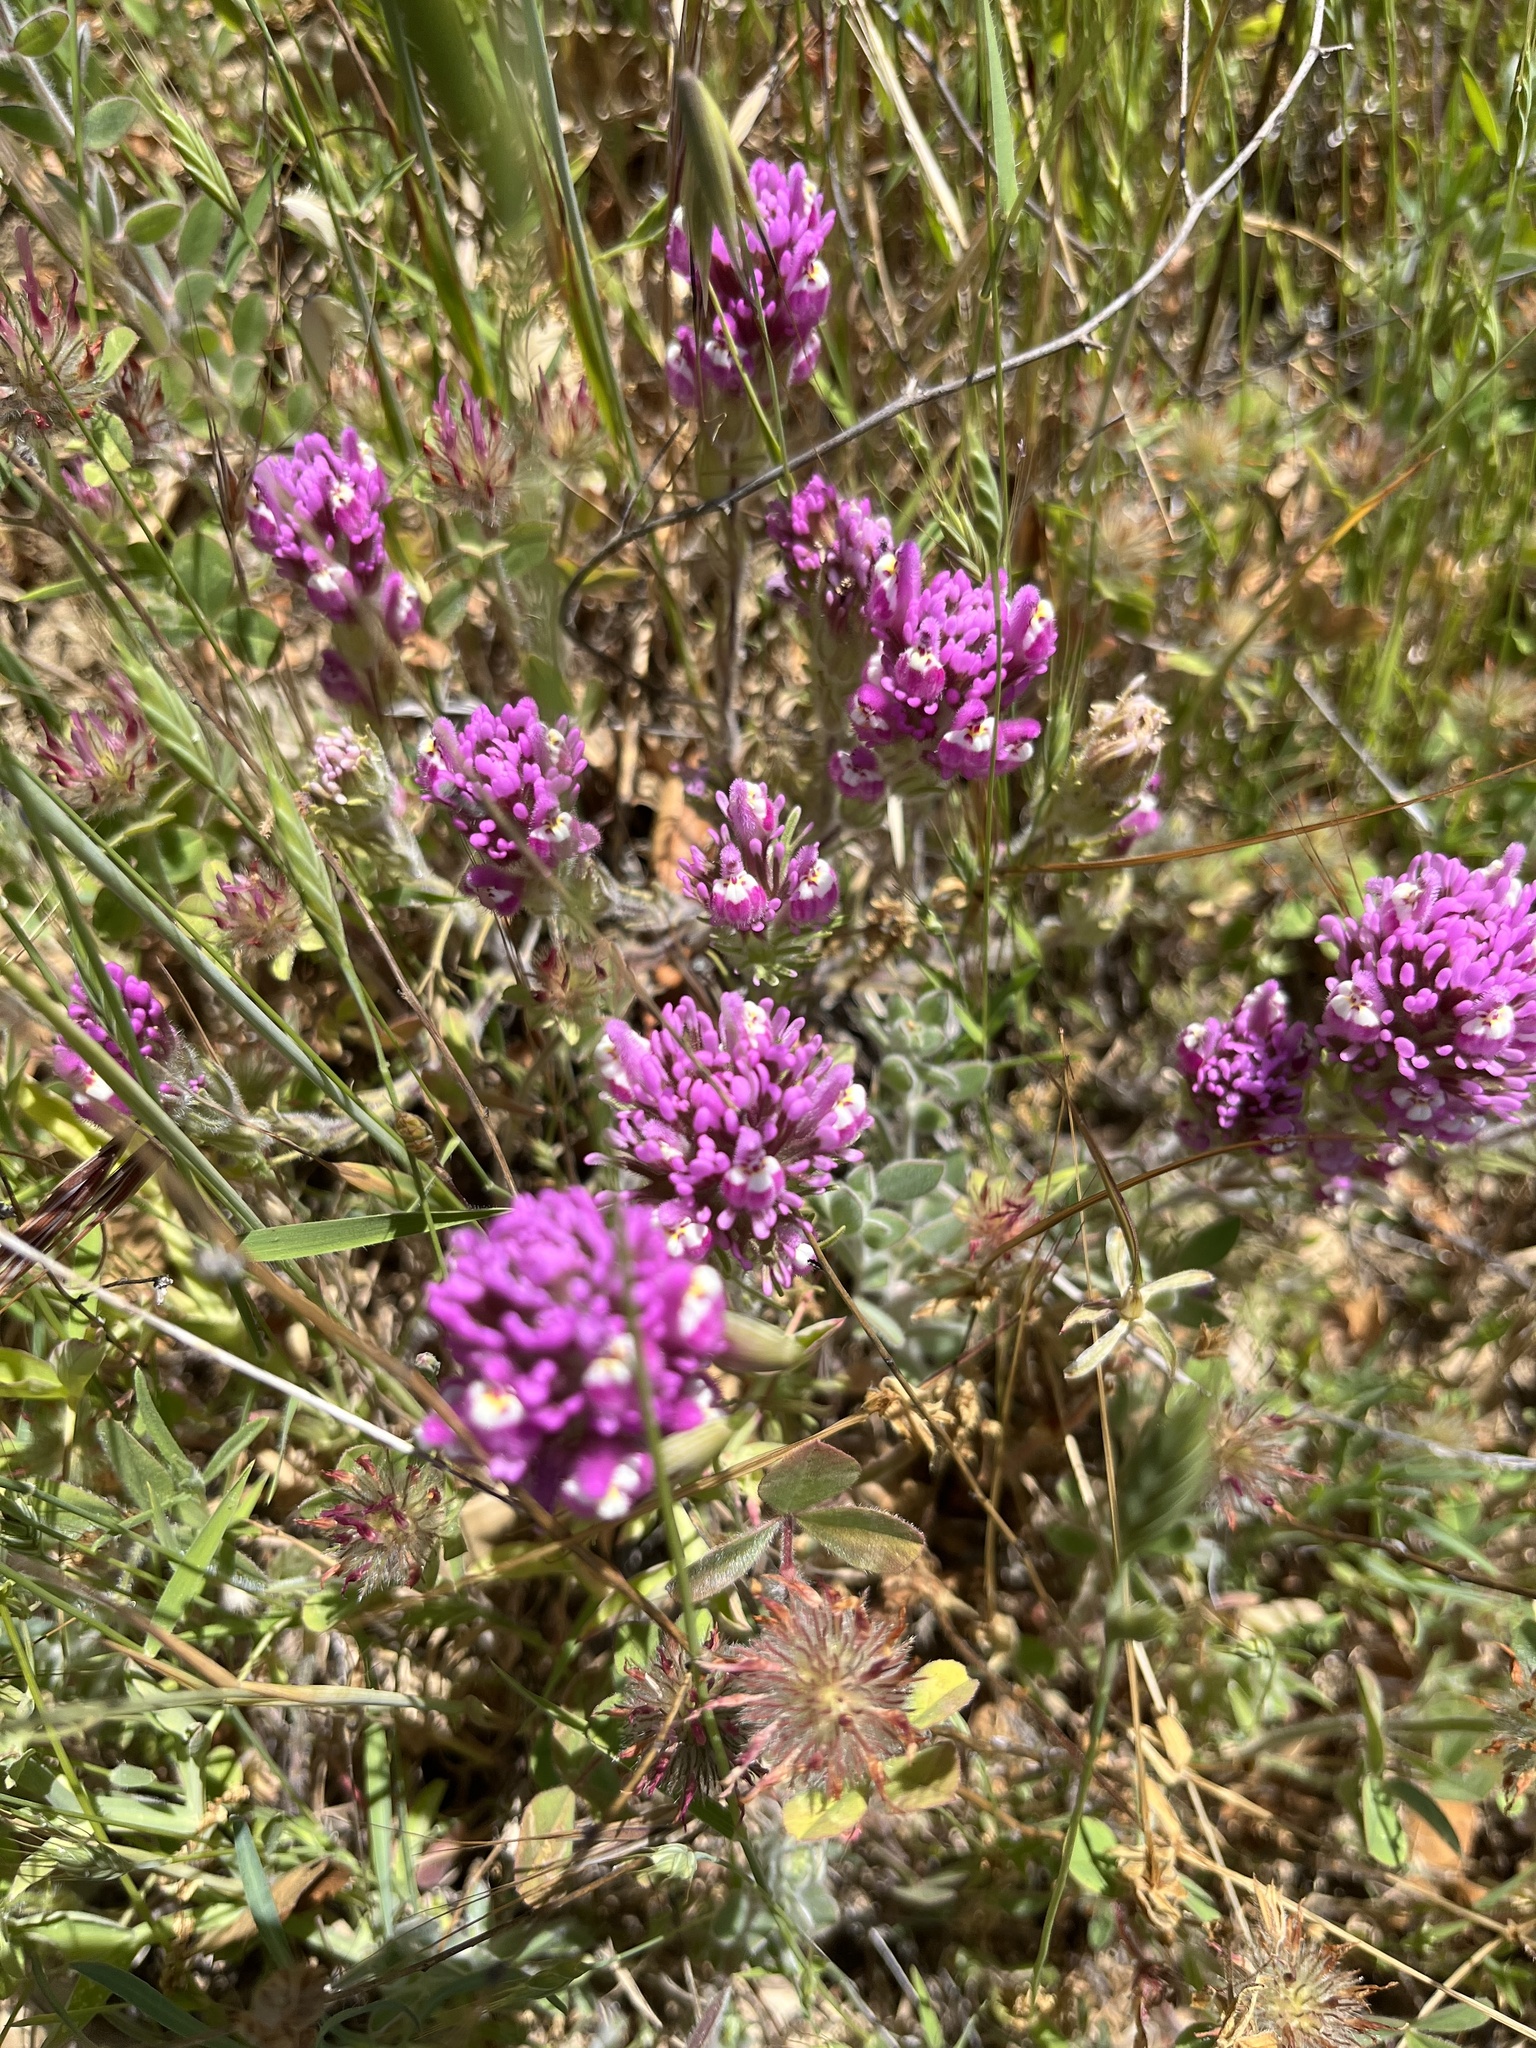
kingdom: Plantae
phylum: Tracheophyta
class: Magnoliopsida
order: Lamiales
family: Orobanchaceae
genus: Castilleja
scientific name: Castilleja exserta
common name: Purple owl-clover
